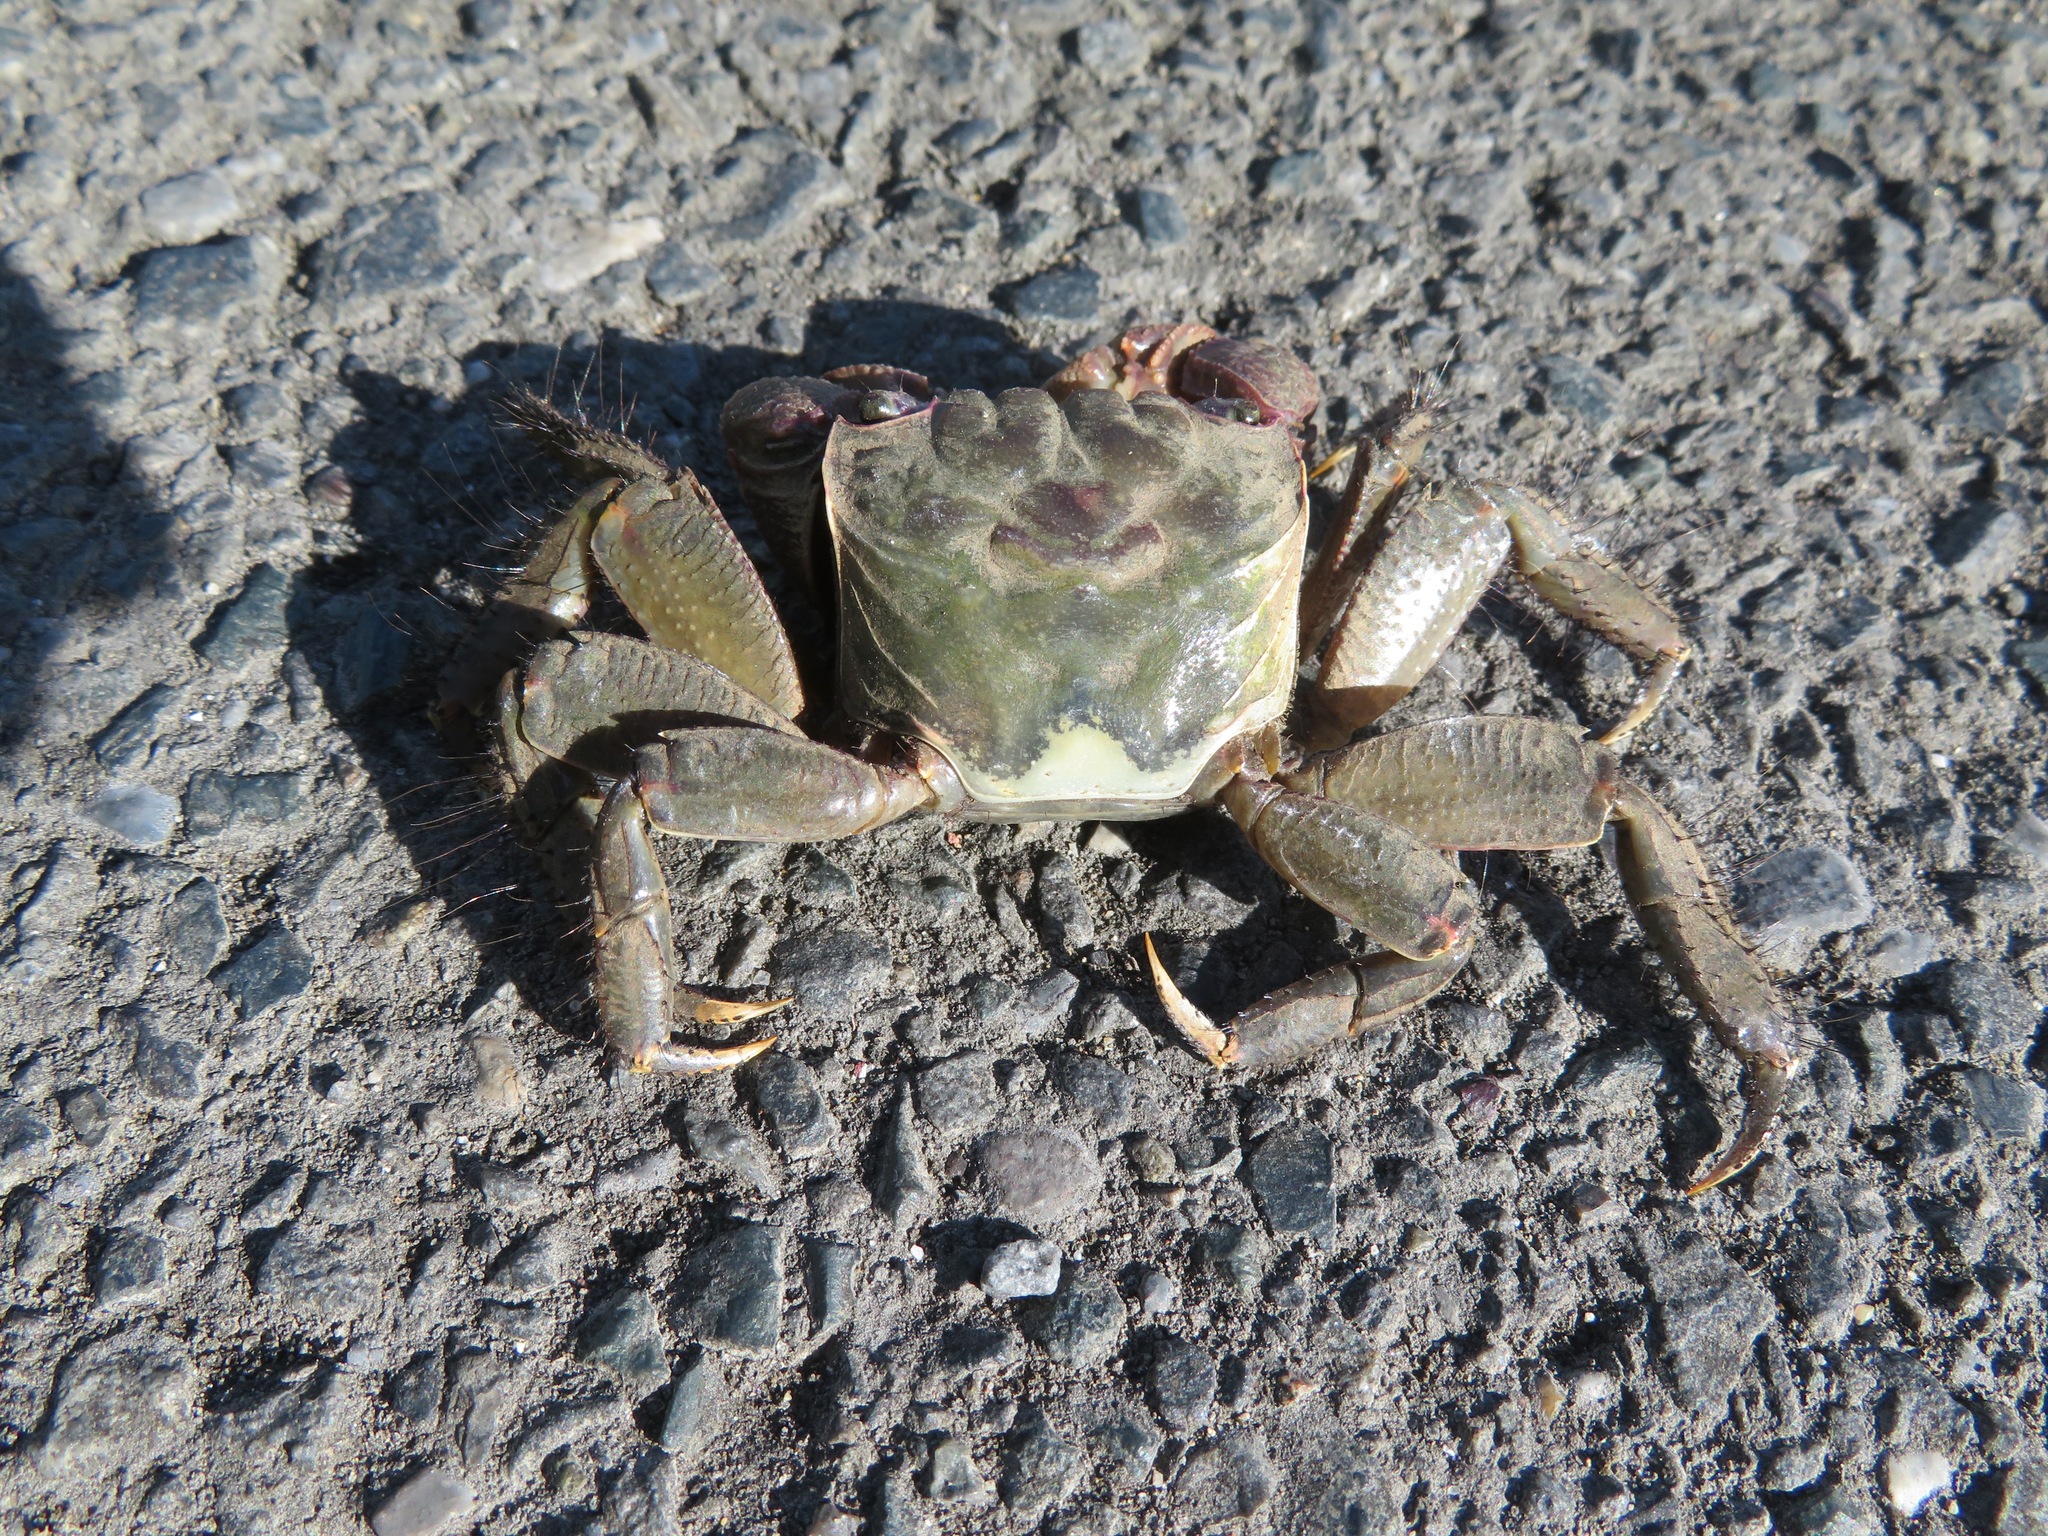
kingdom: Animalia
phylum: Arthropoda
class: Malacostraca
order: Decapoda
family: Sesarmidae
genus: Orisarma
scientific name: Orisarma dehaani
